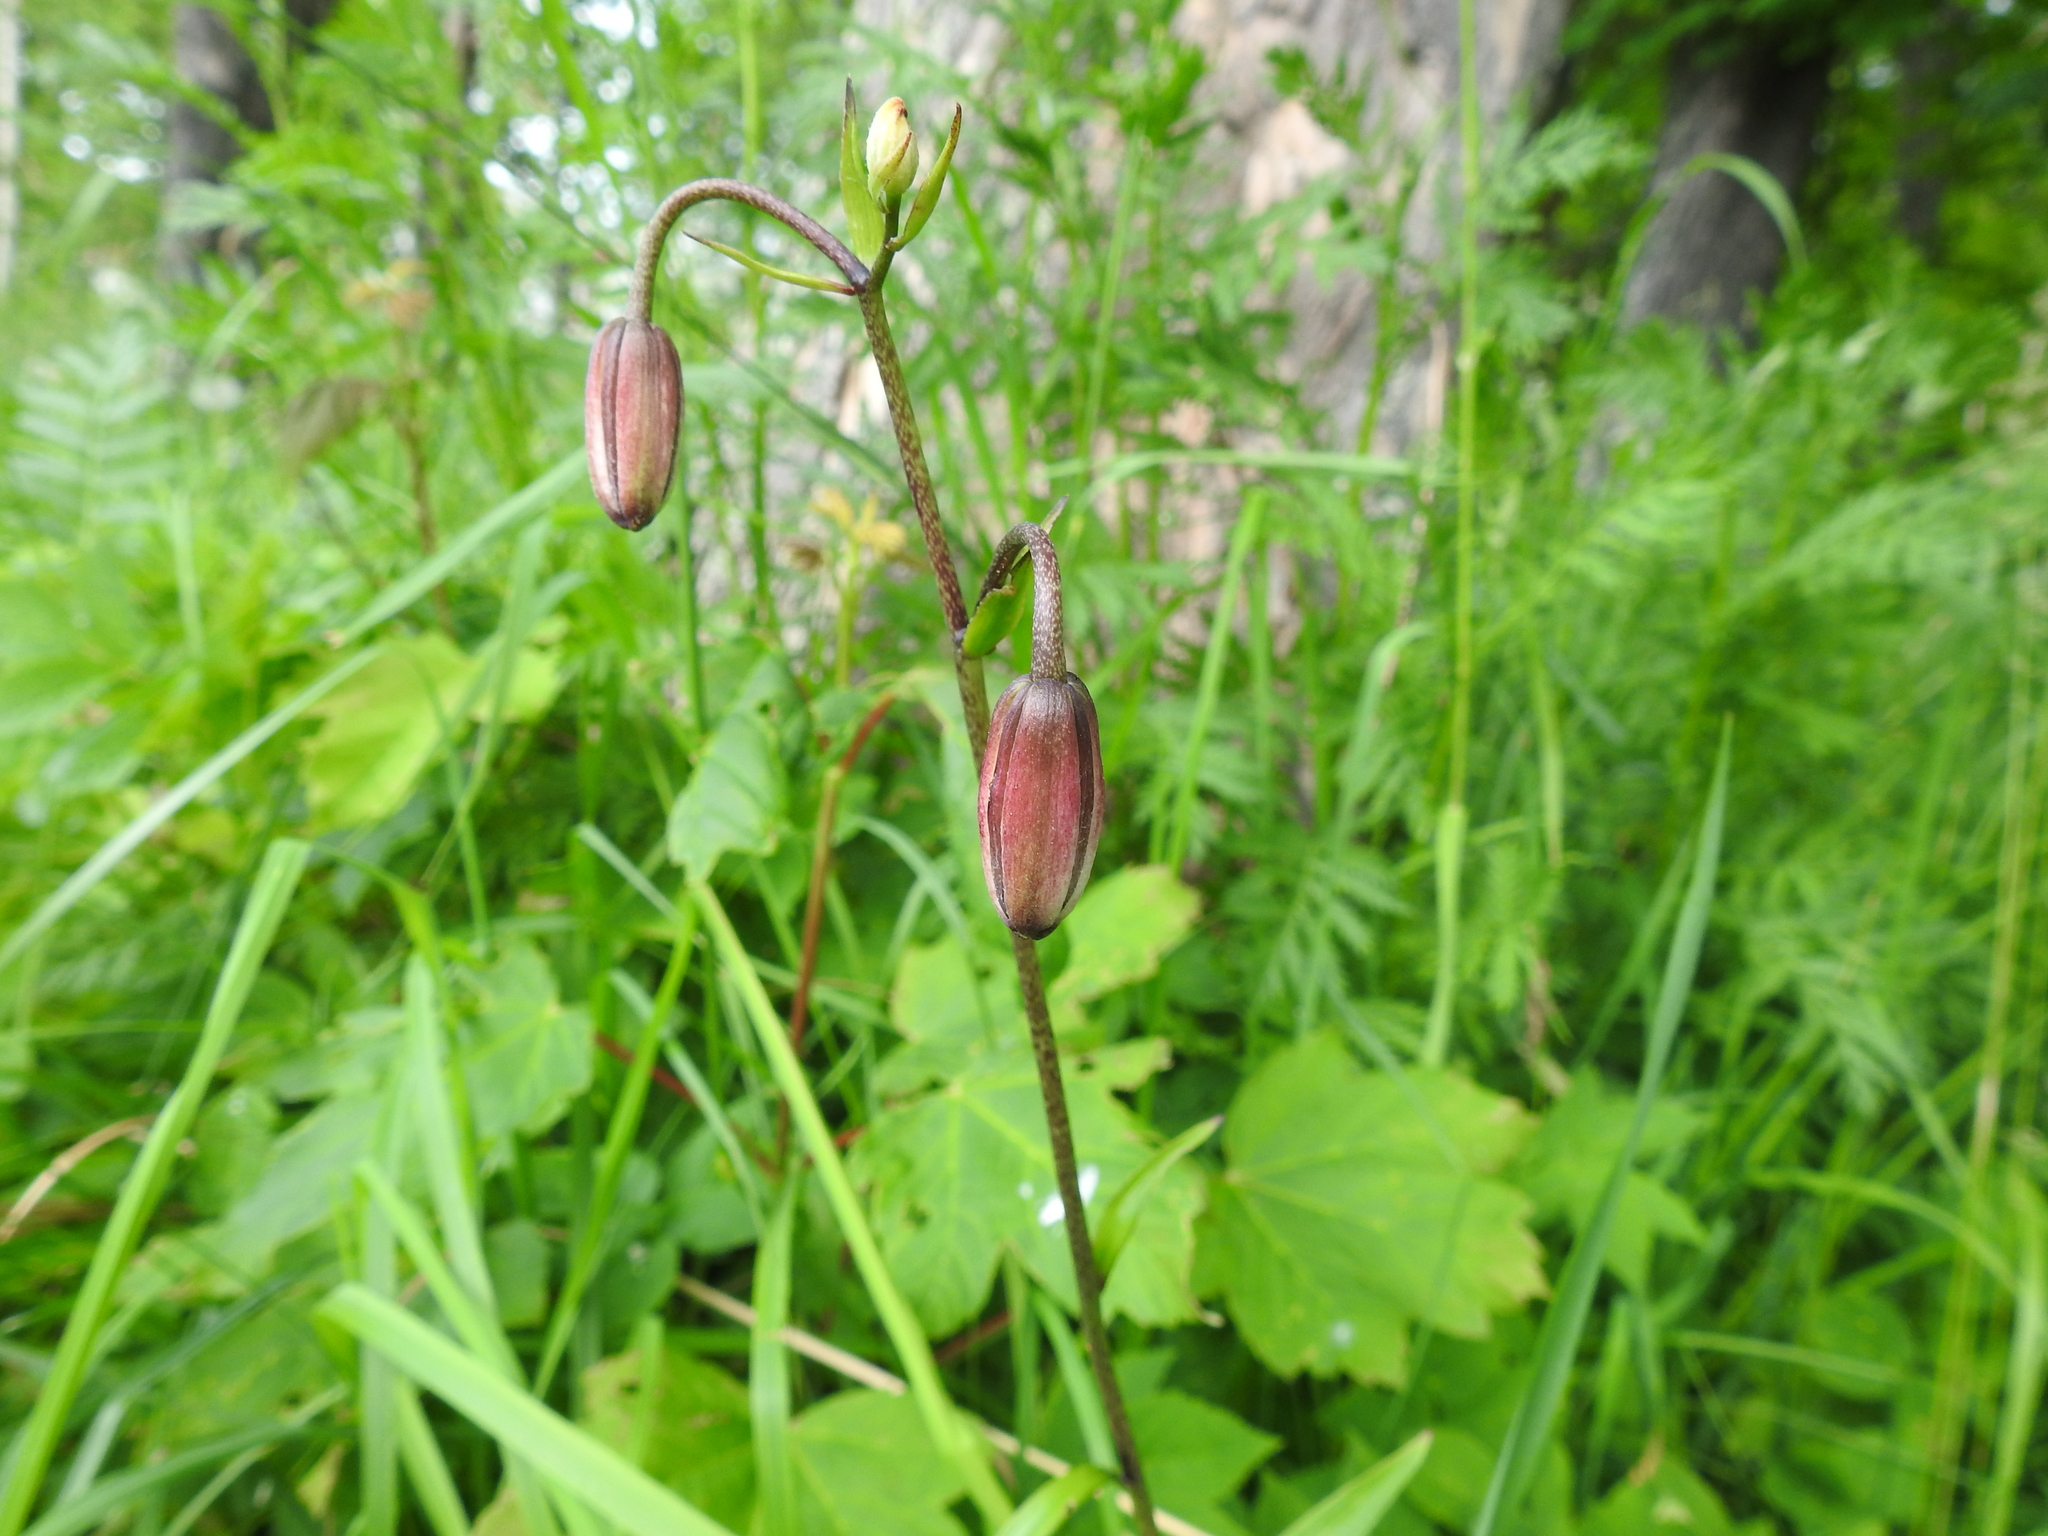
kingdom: Plantae
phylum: Tracheophyta
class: Liliopsida
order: Liliales
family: Liliaceae
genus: Lilium
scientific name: Lilium martagon
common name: Martagon lily
